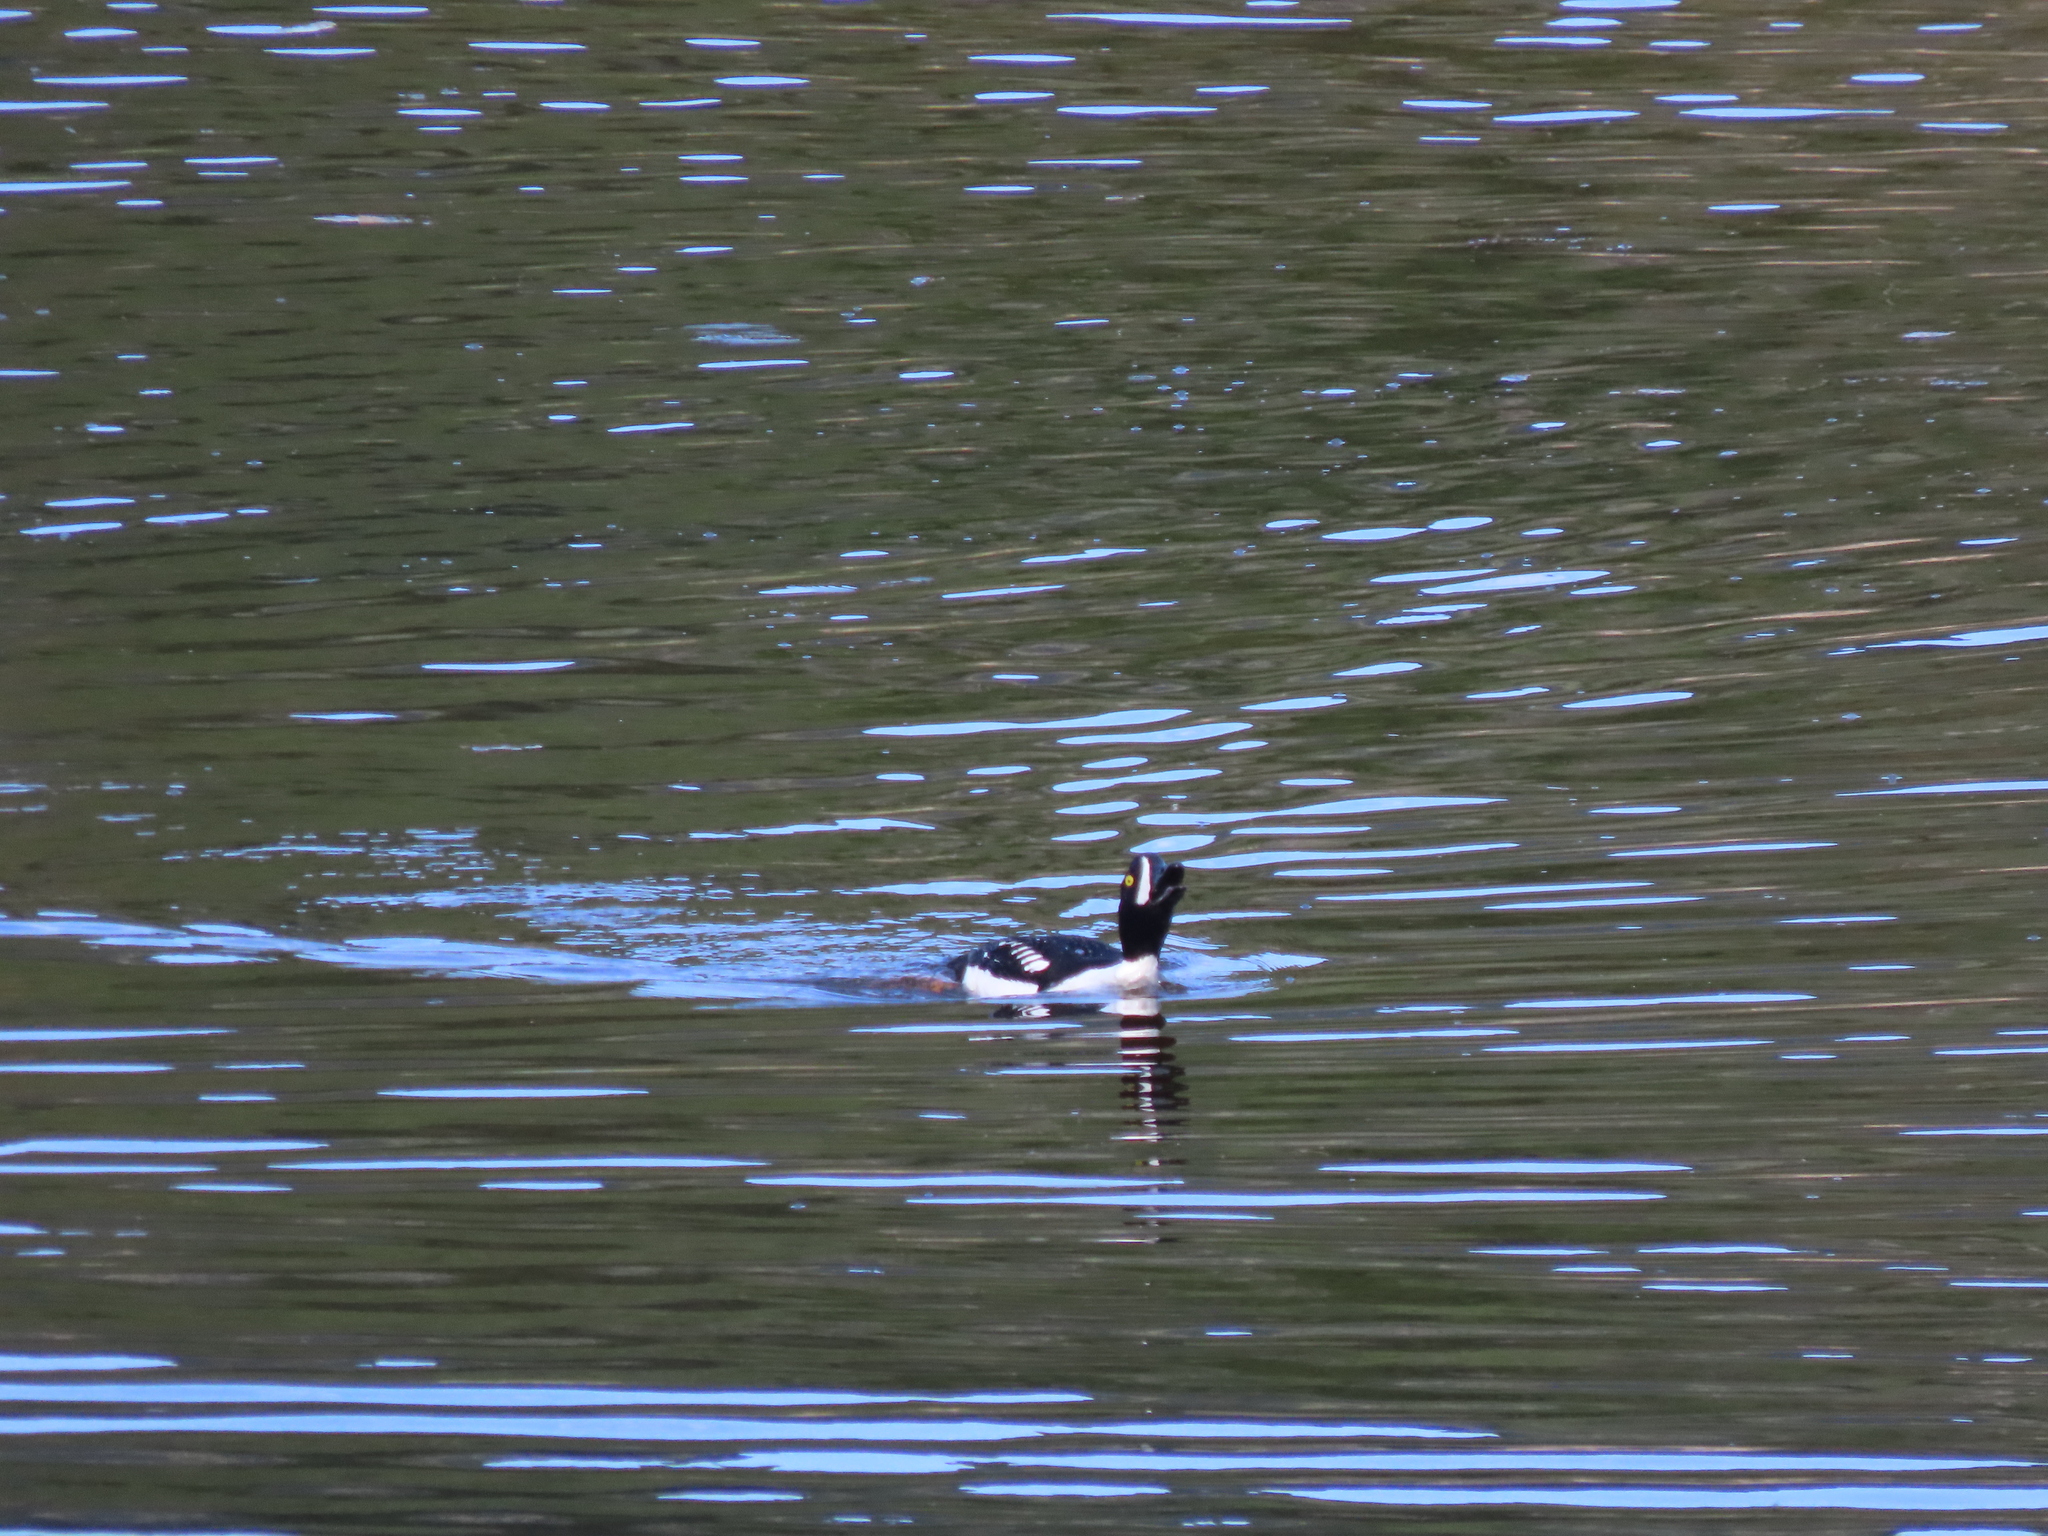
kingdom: Animalia
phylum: Chordata
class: Aves
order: Anseriformes
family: Anatidae
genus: Bucephala
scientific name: Bucephala islandica
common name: Barrow's goldeneye
